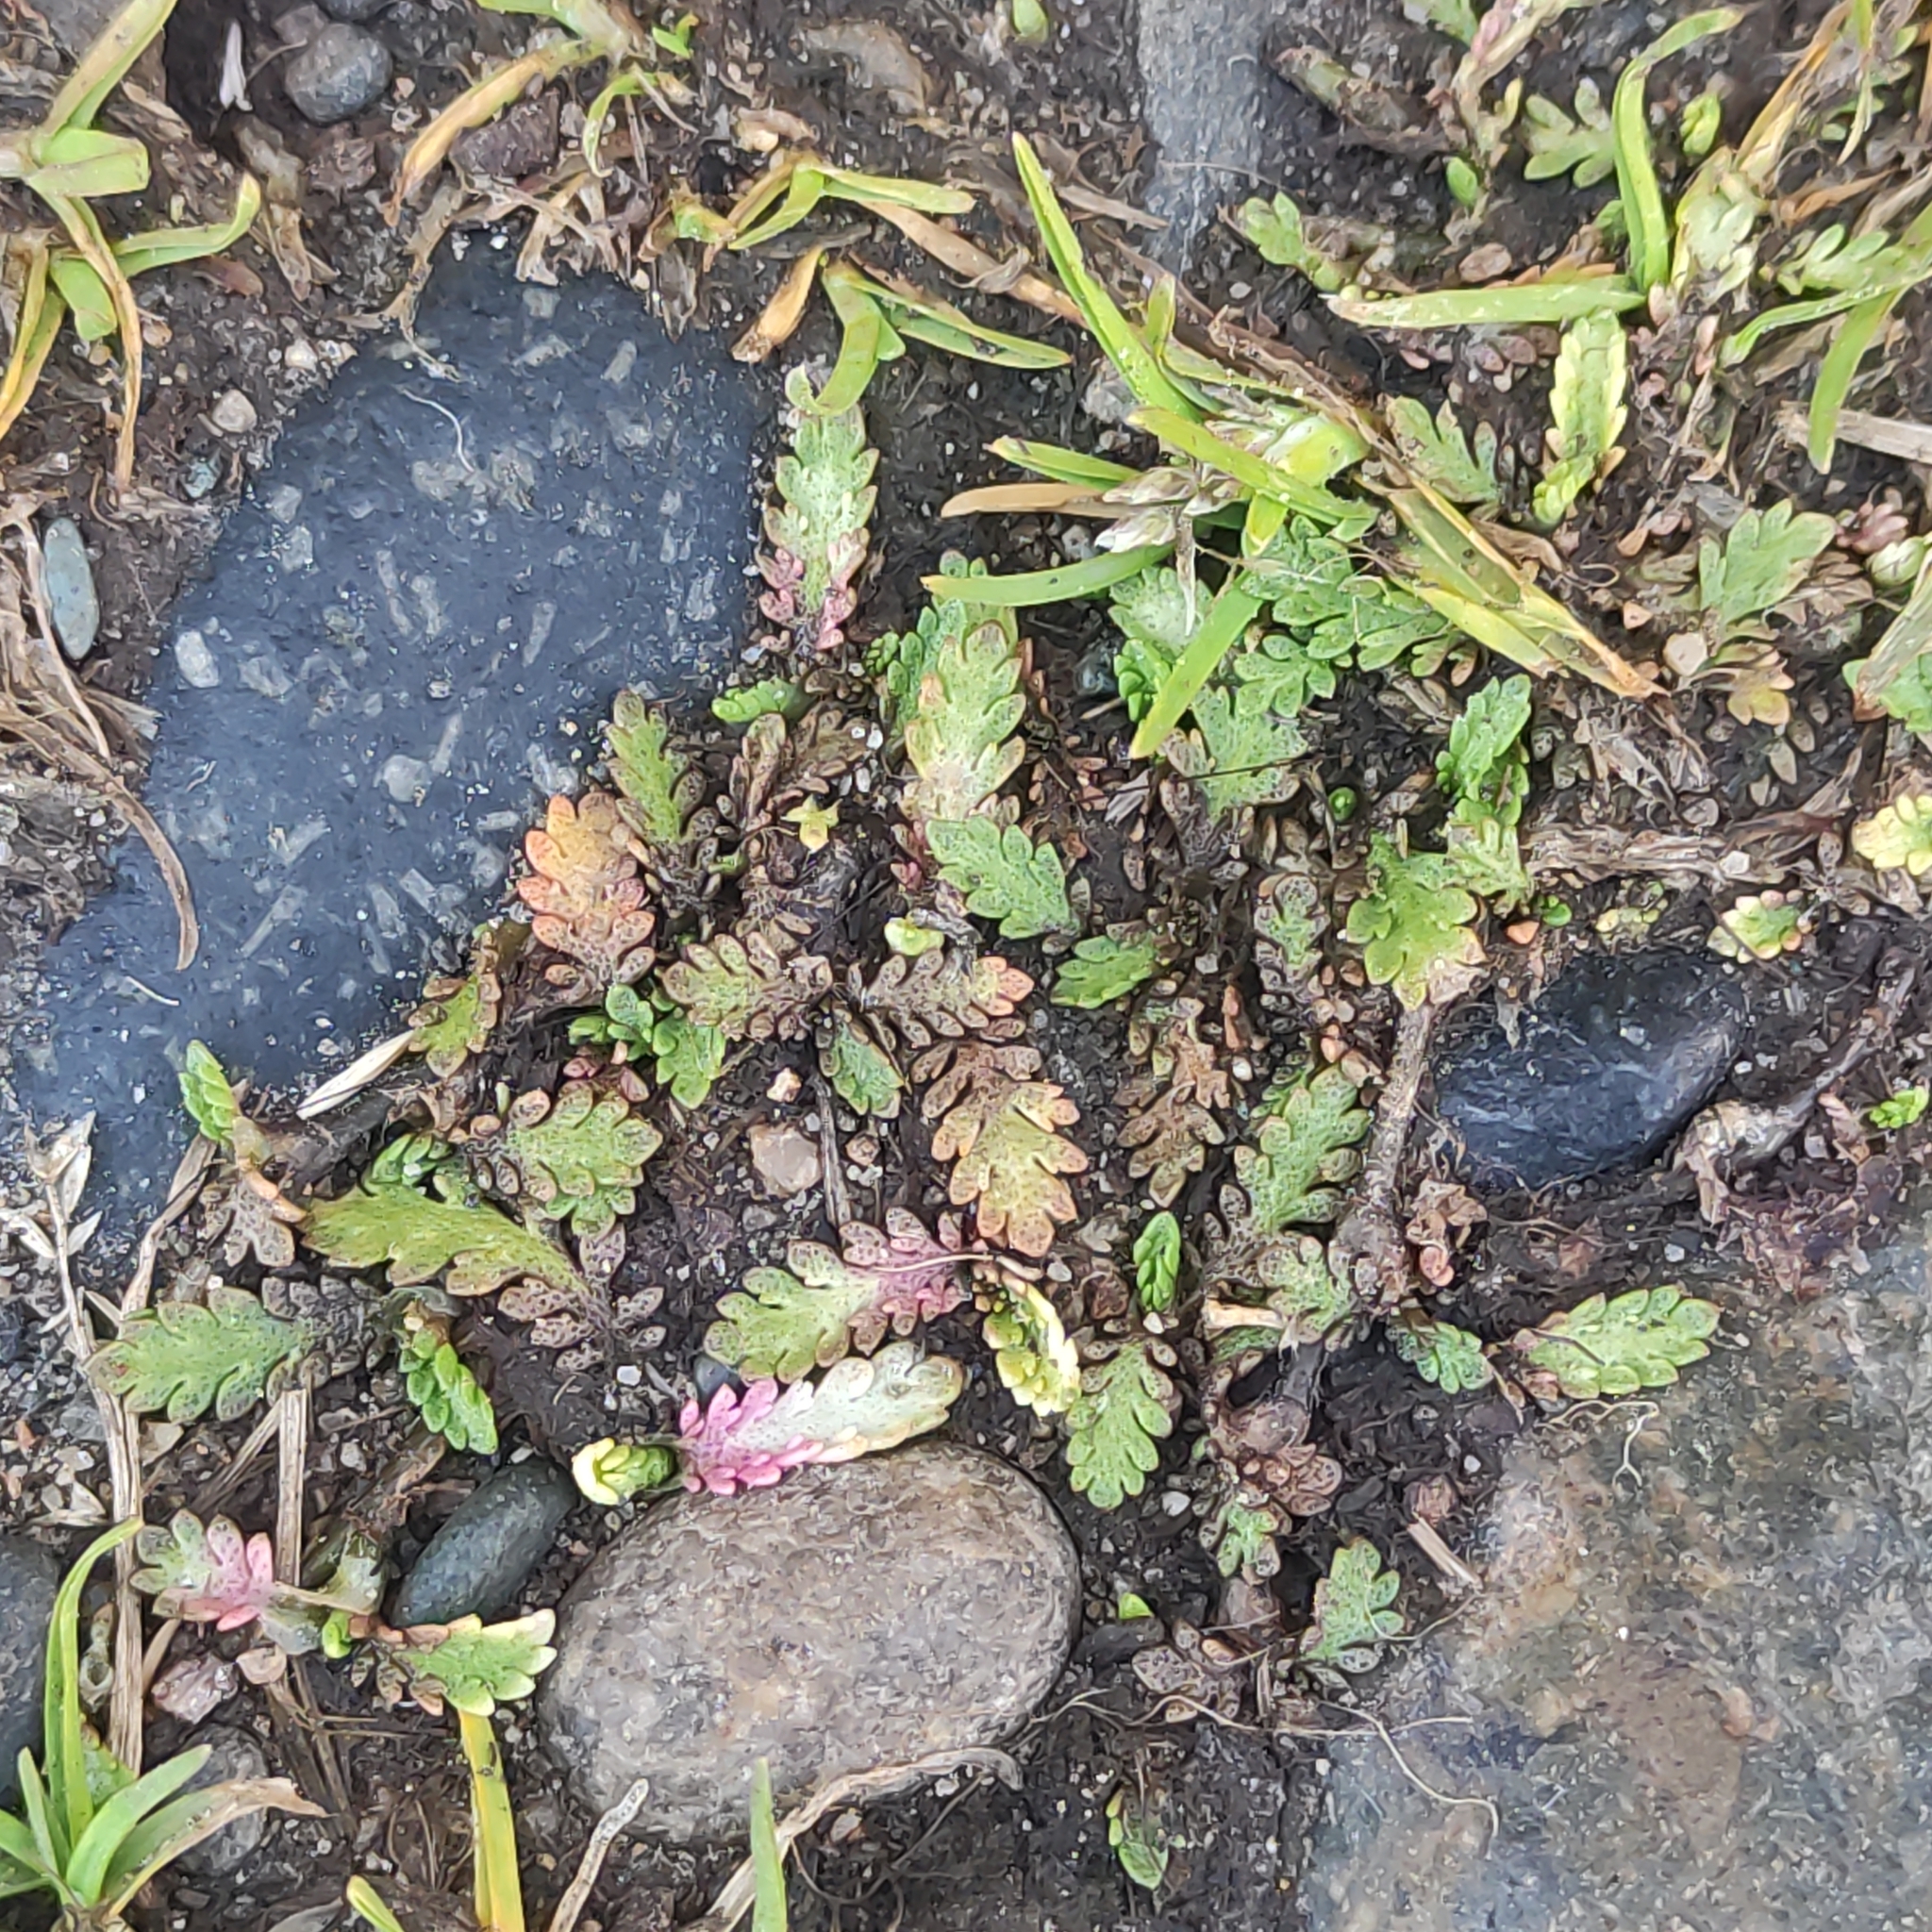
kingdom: Plantae
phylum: Tracheophyta
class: Magnoliopsida
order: Asterales
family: Asteraceae
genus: Leptinella
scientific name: Leptinella dioica
